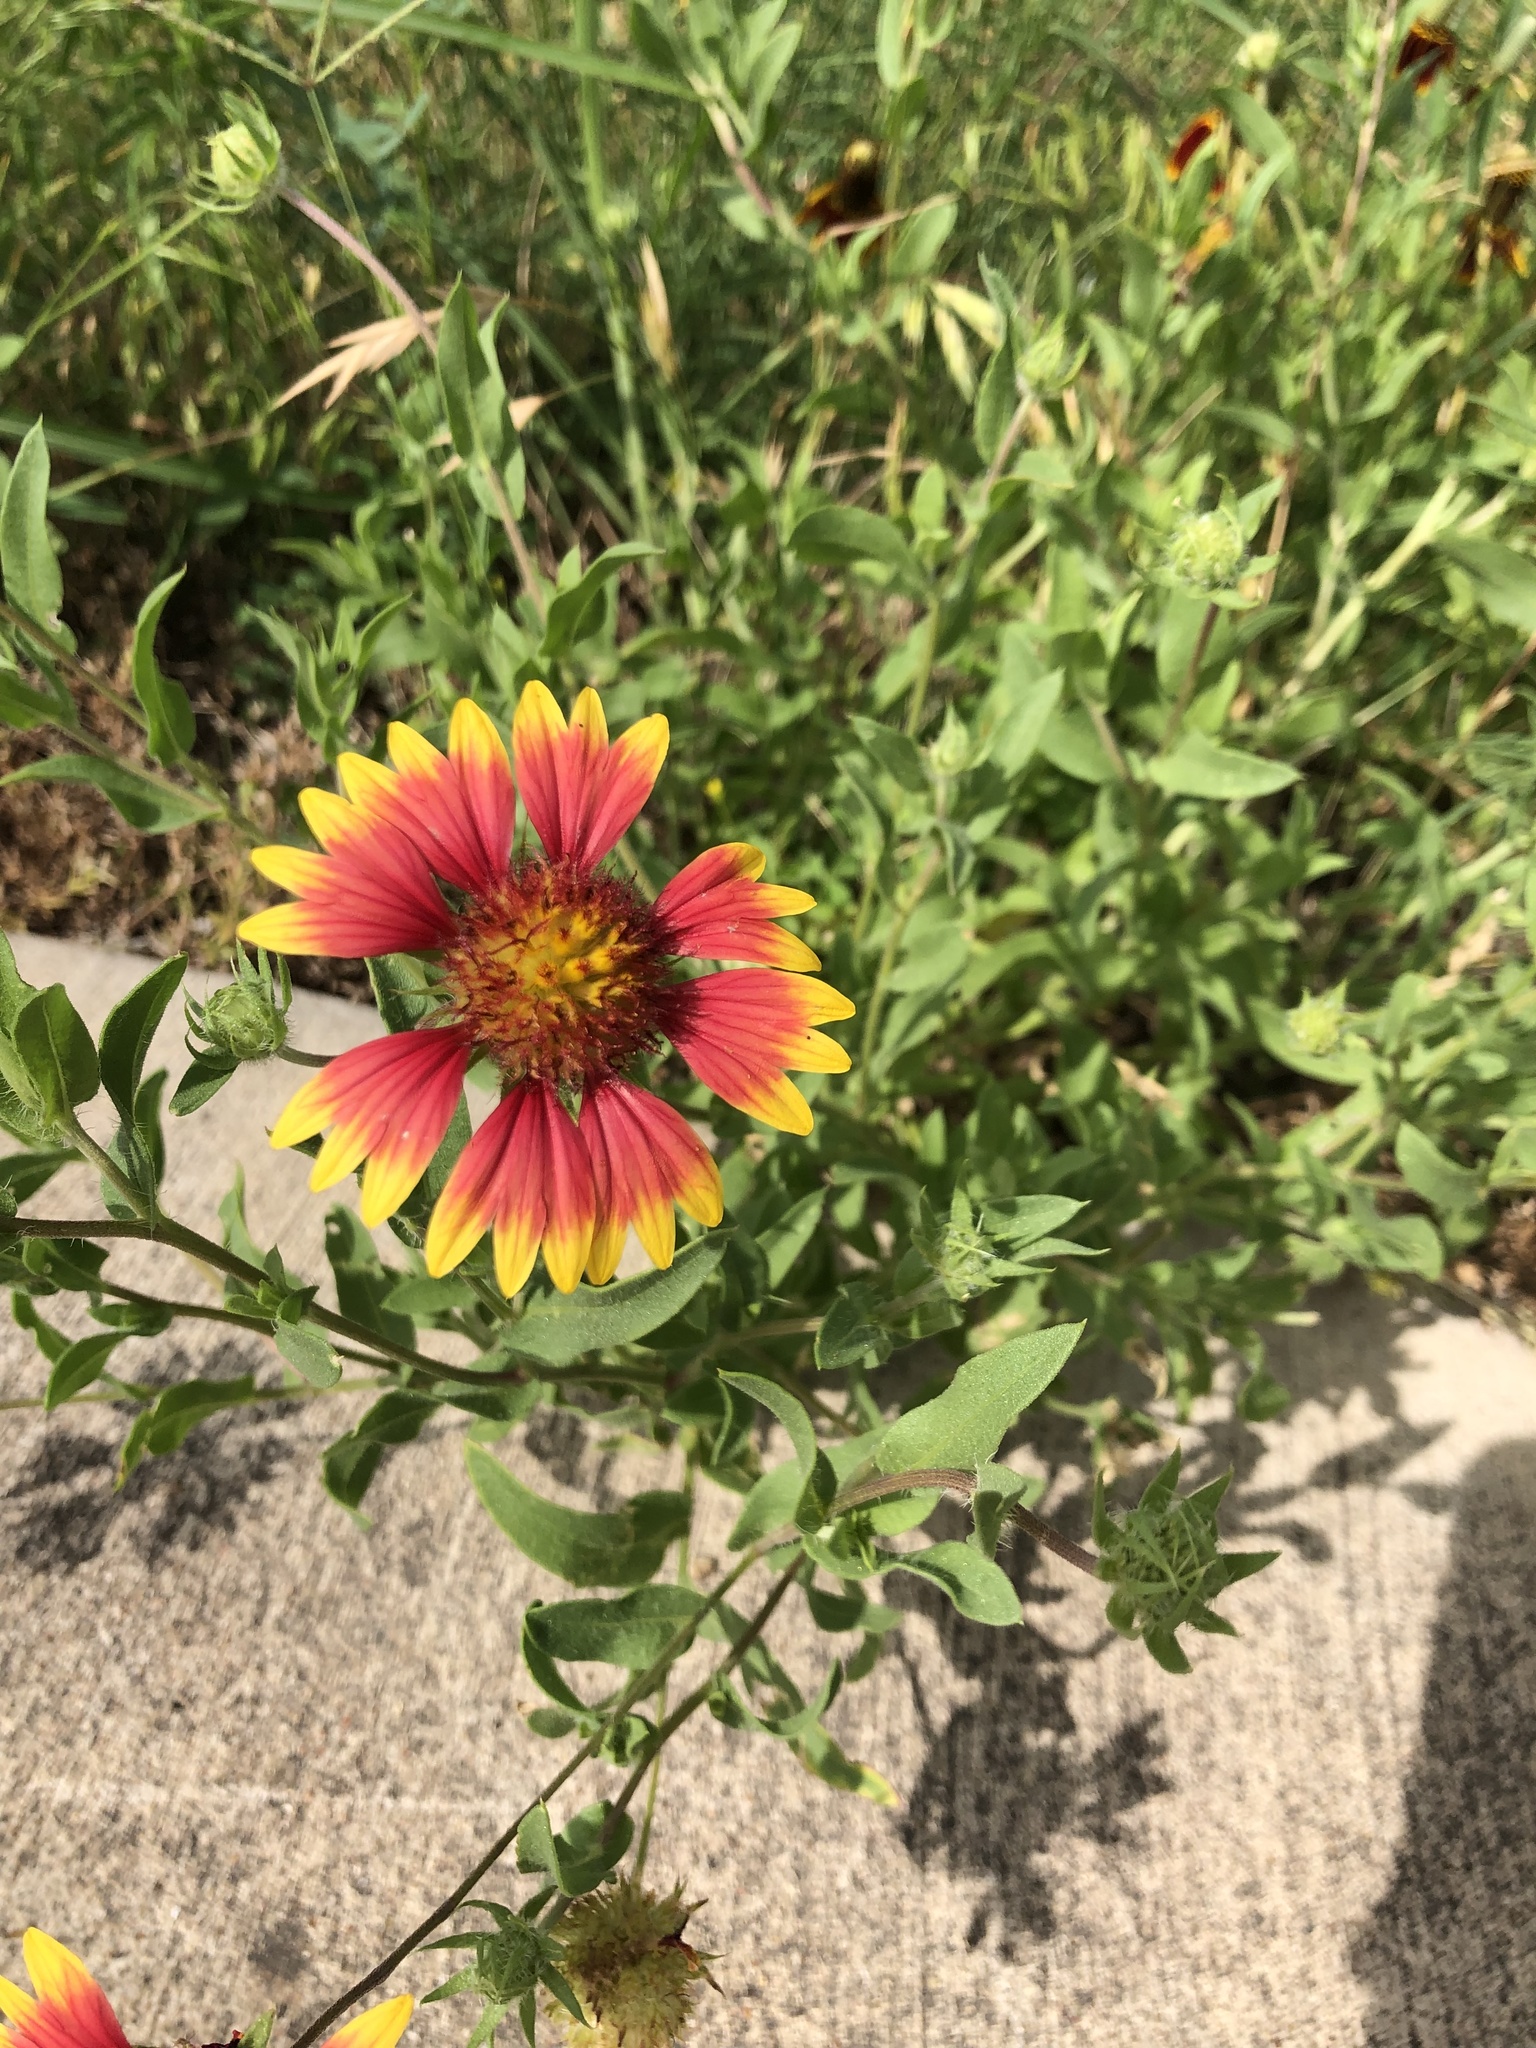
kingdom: Plantae
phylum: Tracheophyta
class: Magnoliopsida
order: Asterales
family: Asteraceae
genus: Gaillardia
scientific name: Gaillardia pulchella
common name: Firewheel
